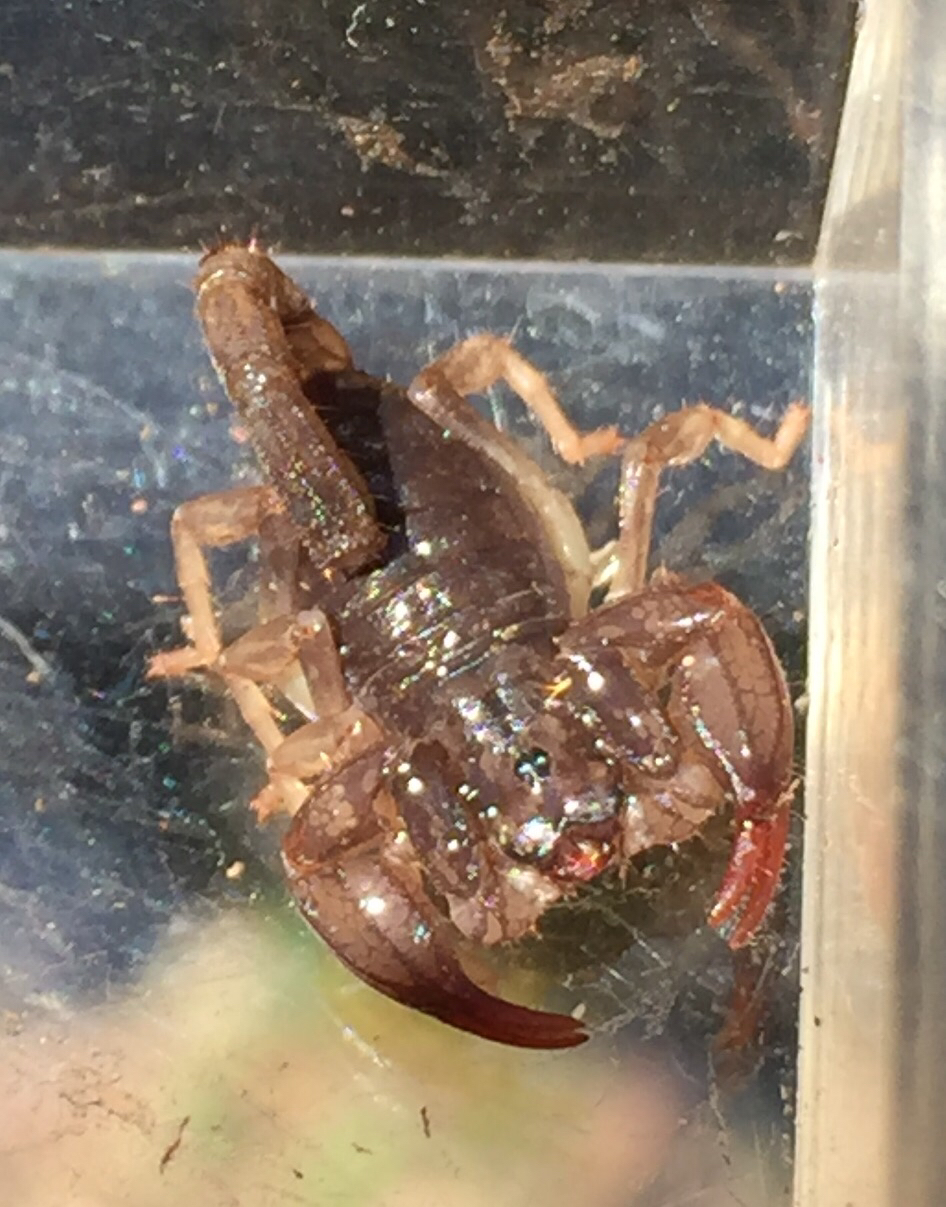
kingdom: Animalia
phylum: Arthropoda
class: Arachnida
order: Scorpiones
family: Chactidae
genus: Uroctonus
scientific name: Uroctonus mordax
